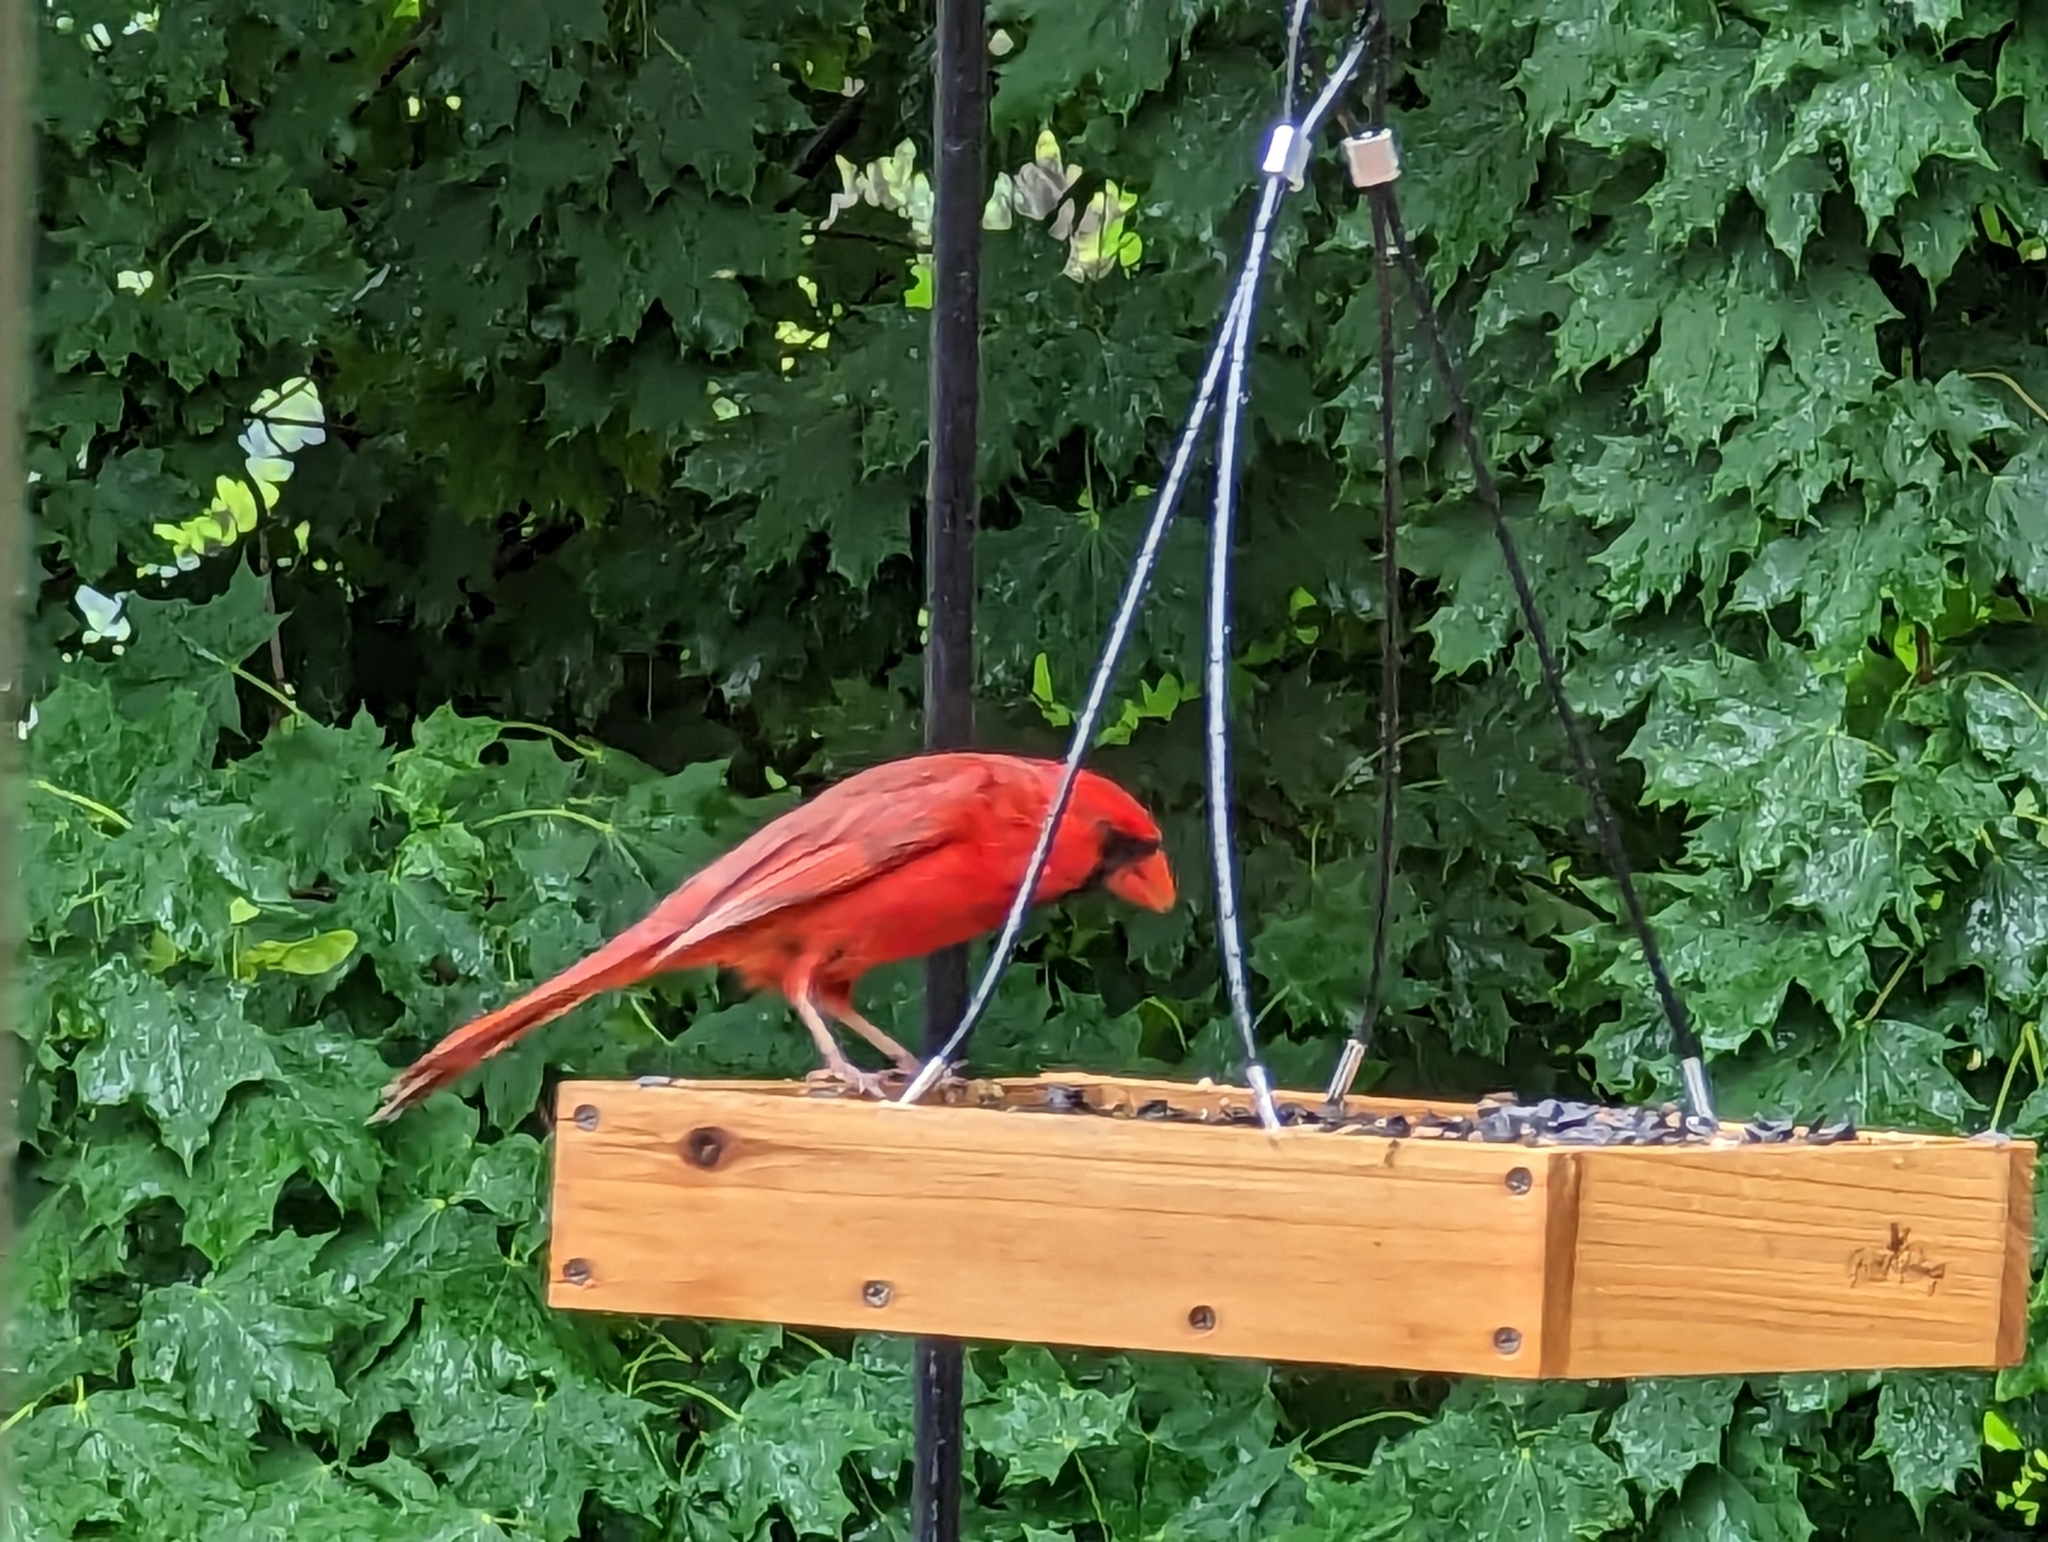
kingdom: Animalia
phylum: Chordata
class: Aves
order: Passeriformes
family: Cardinalidae
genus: Cardinalis
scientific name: Cardinalis cardinalis
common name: Northern cardinal
